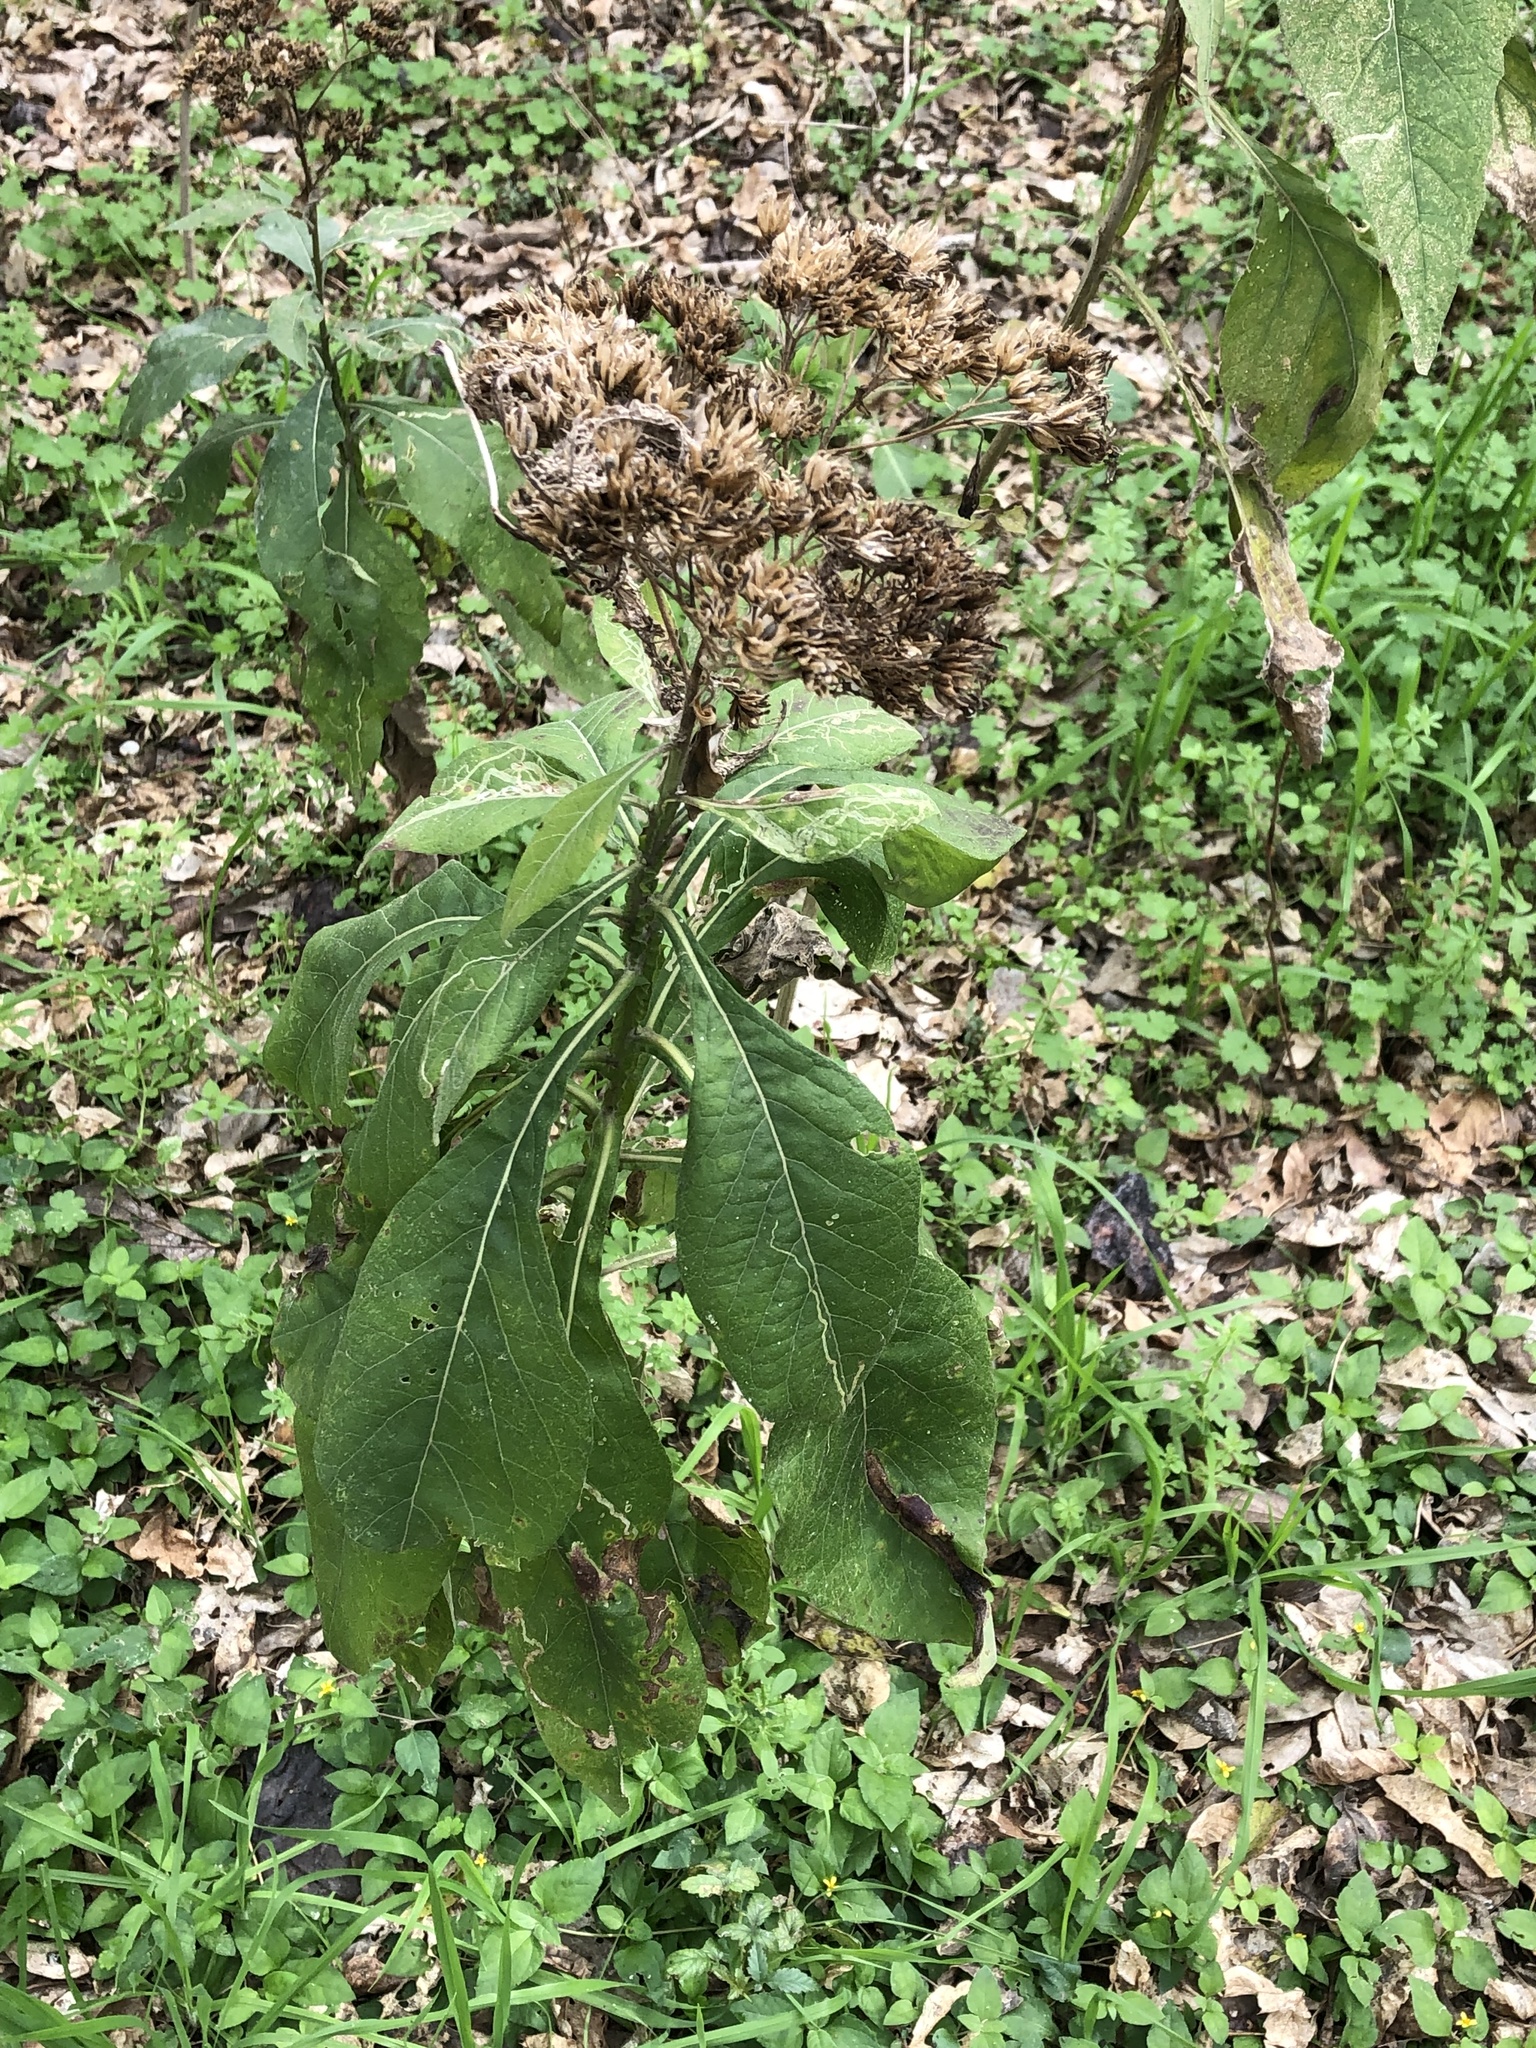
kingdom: Plantae
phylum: Tracheophyta
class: Magnoliopsida
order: Asterales
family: Asteraceae
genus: Verbesina
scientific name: Verbesina virginica
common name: Frostweed
